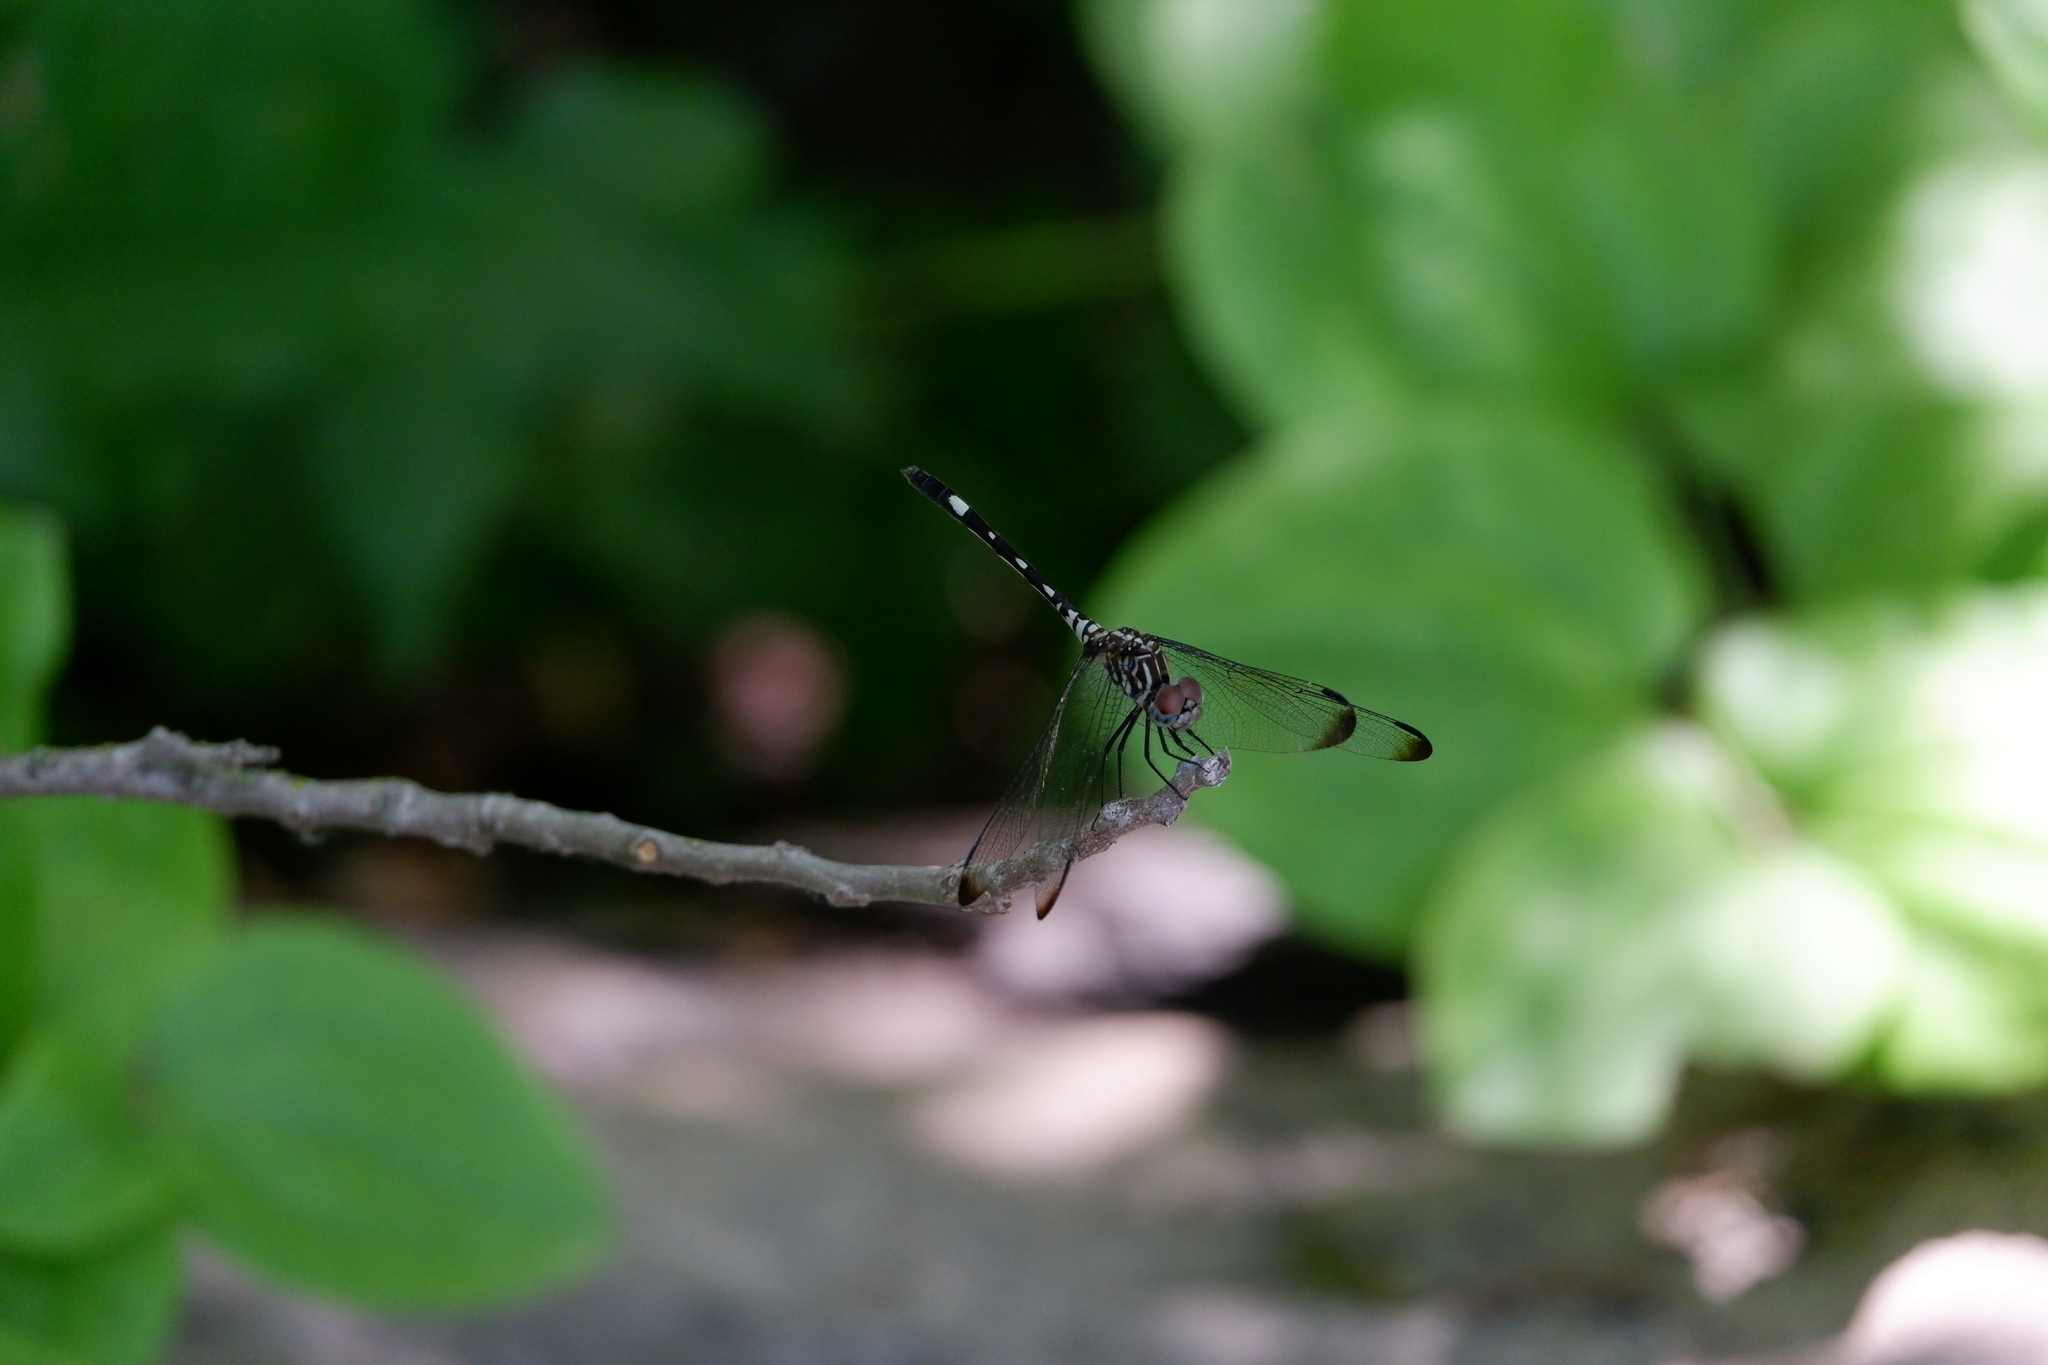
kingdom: Animalia
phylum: Arthropoda
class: Insecta
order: Odonata
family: Libellulidae
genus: Dythemis
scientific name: Dythemis velox
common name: Swift setwing
